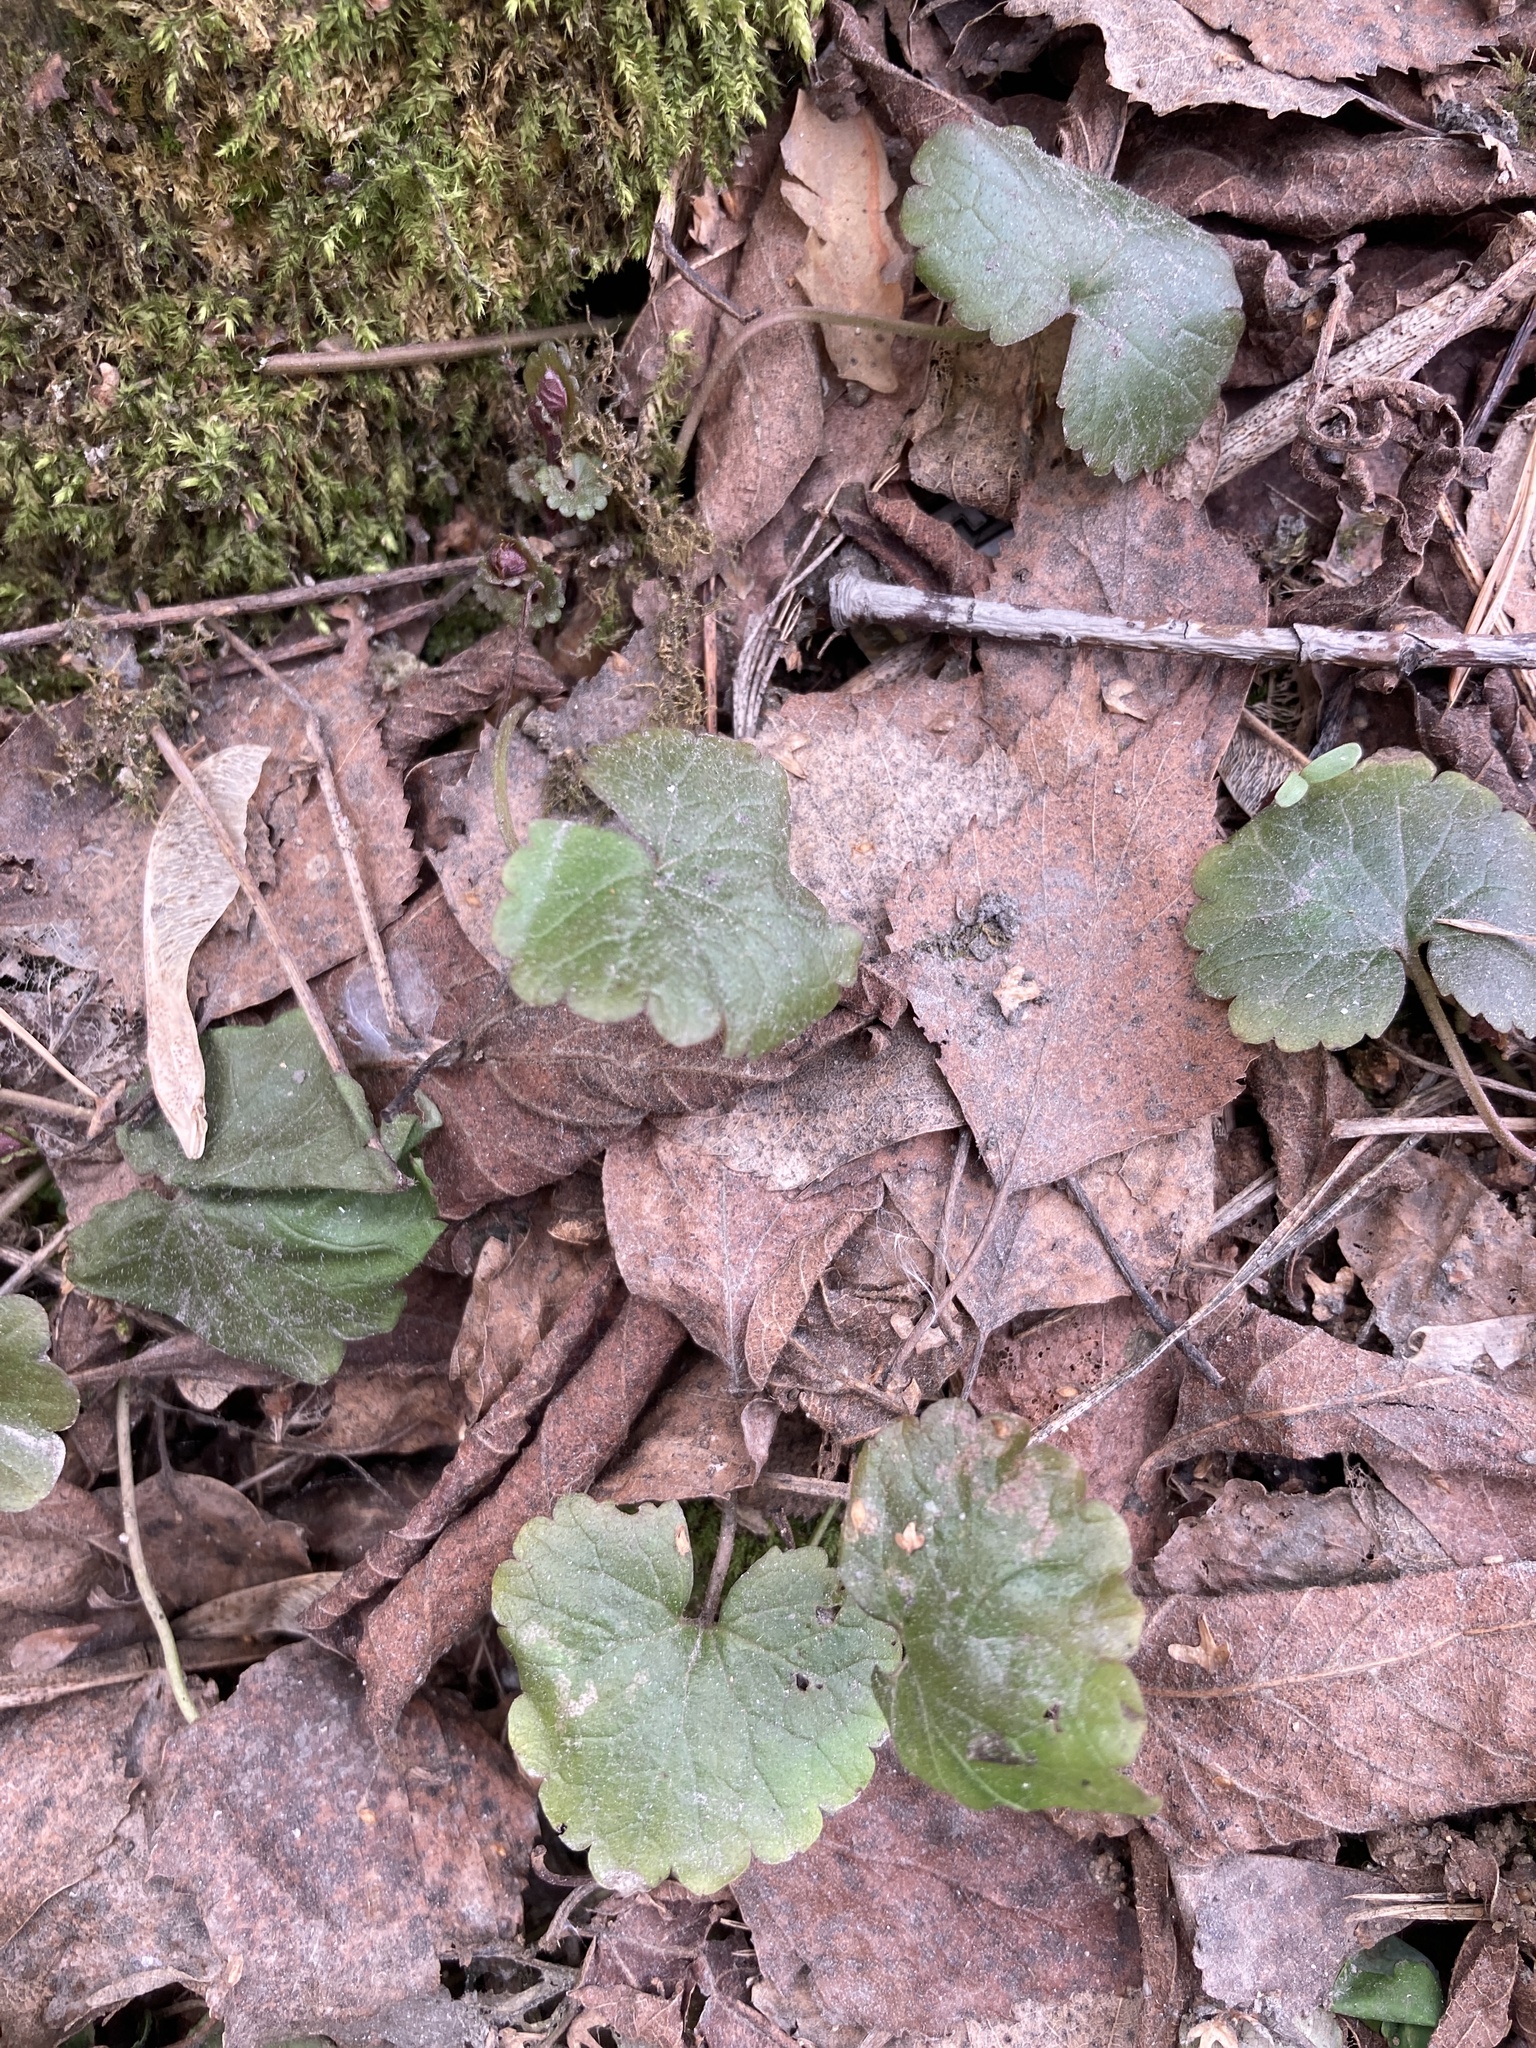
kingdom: Plantae
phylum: Tracheophyta
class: Magnoliopsida
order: Lamiales
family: Lamiaceae
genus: Glechoma
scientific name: Glechoma hederacea
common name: Ground ivy
